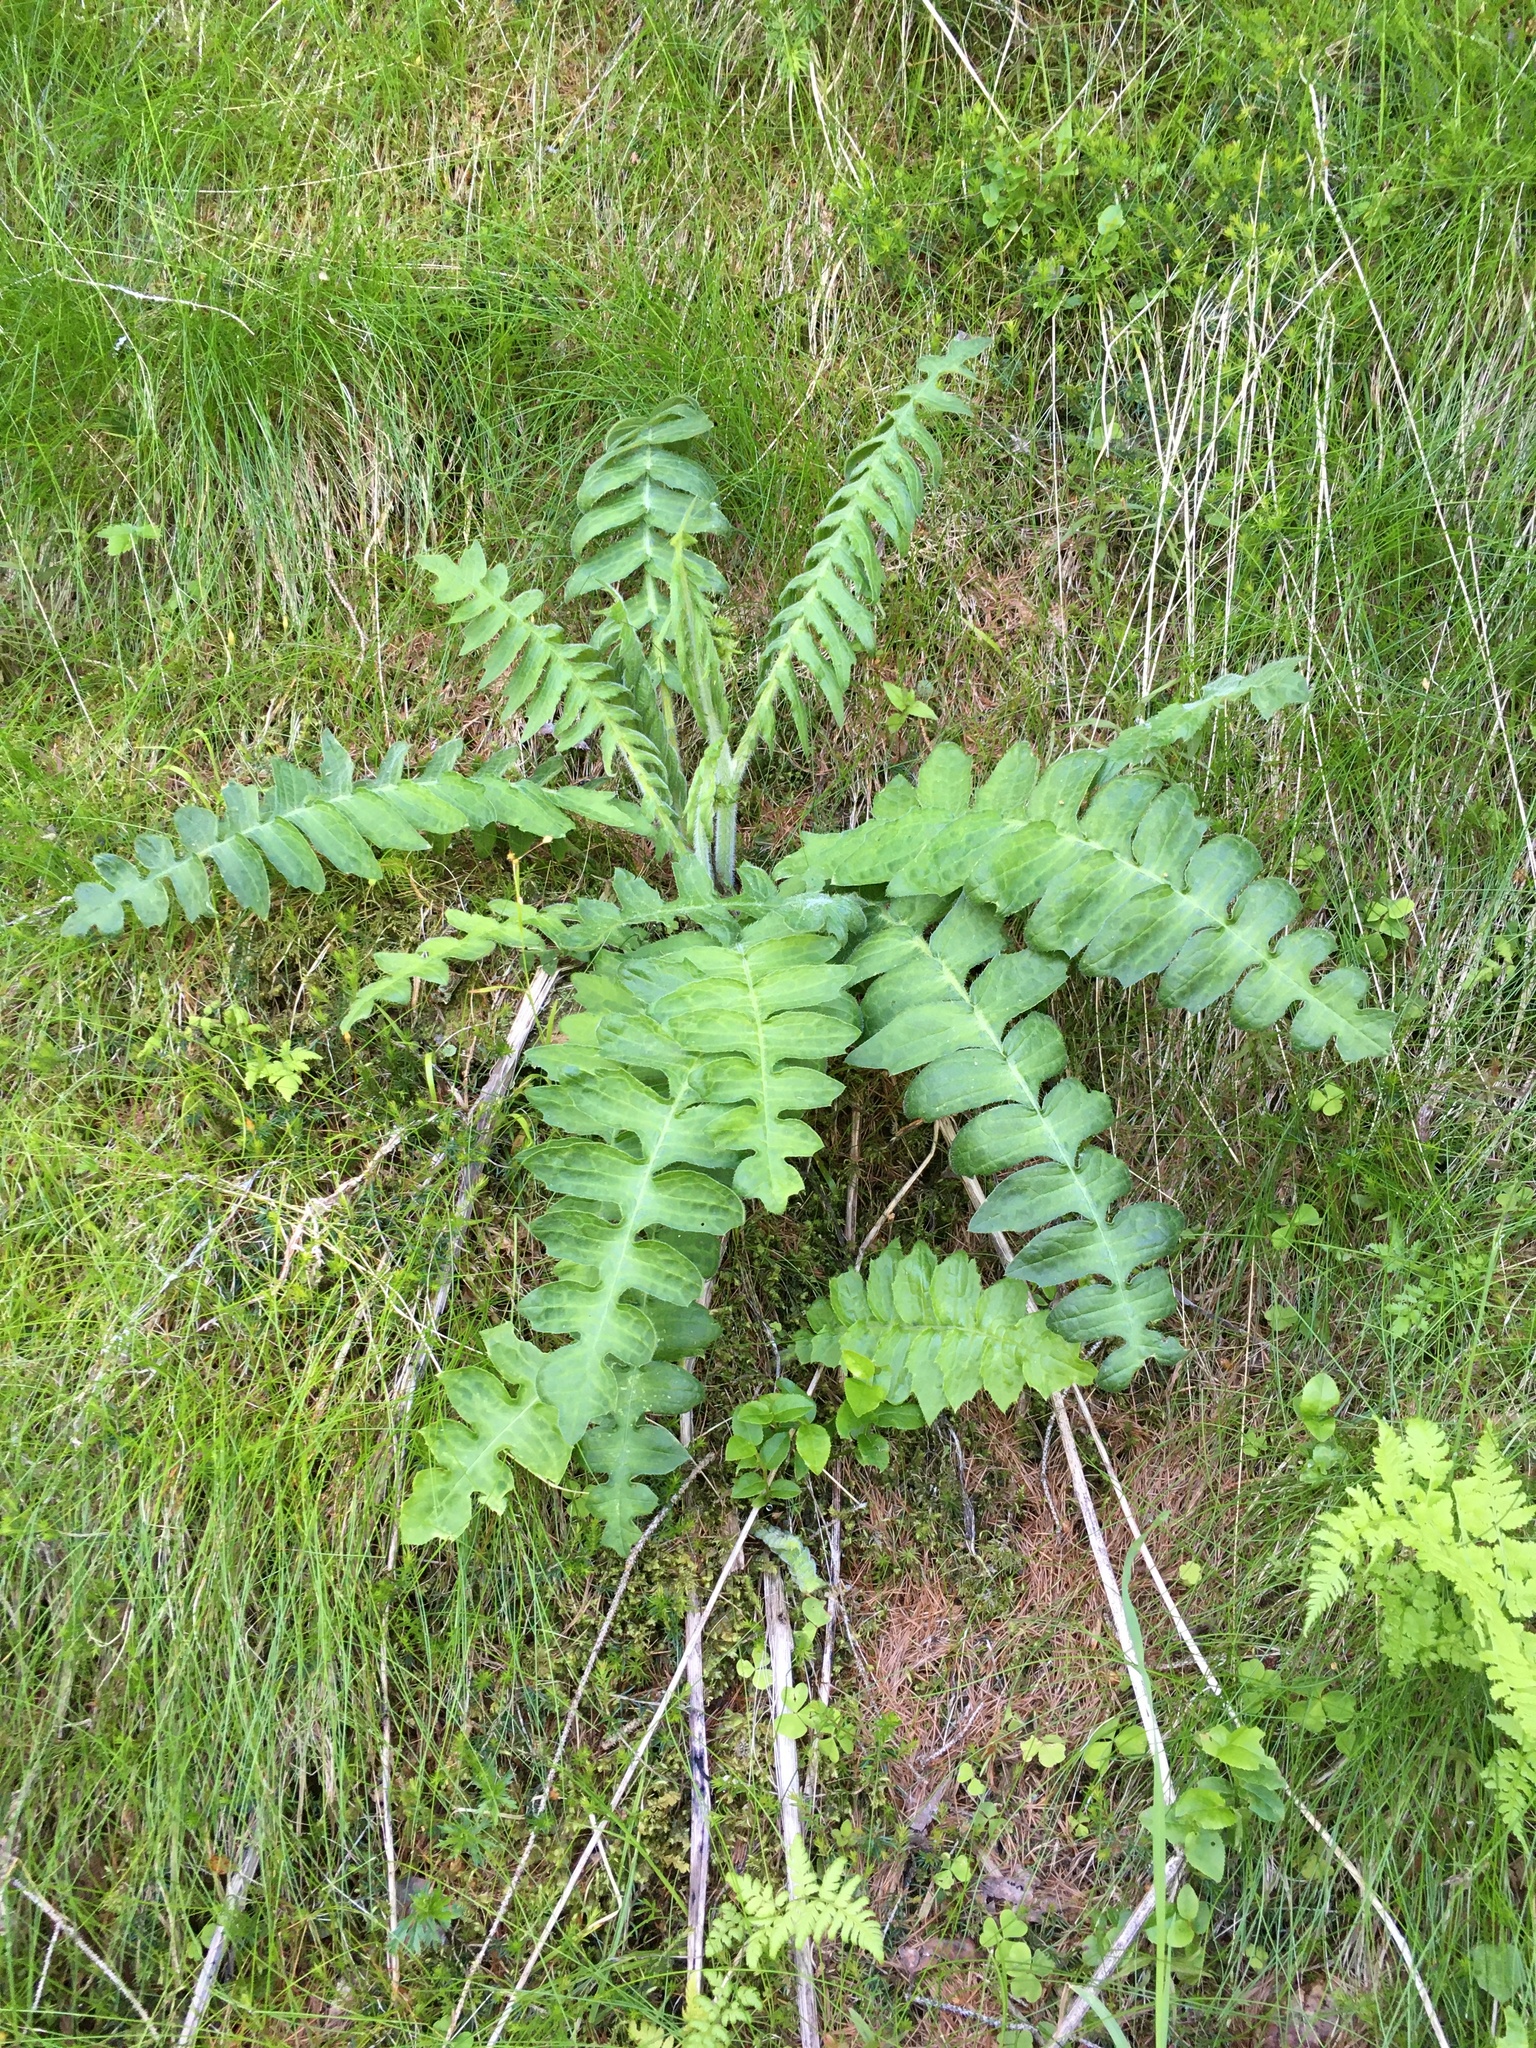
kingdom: Plantae
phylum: Tracheophyta
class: Magnoliopsida
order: Asterales
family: Asteraceae
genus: Cirsium
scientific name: Cirsium erisithales
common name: Yellow thistle
